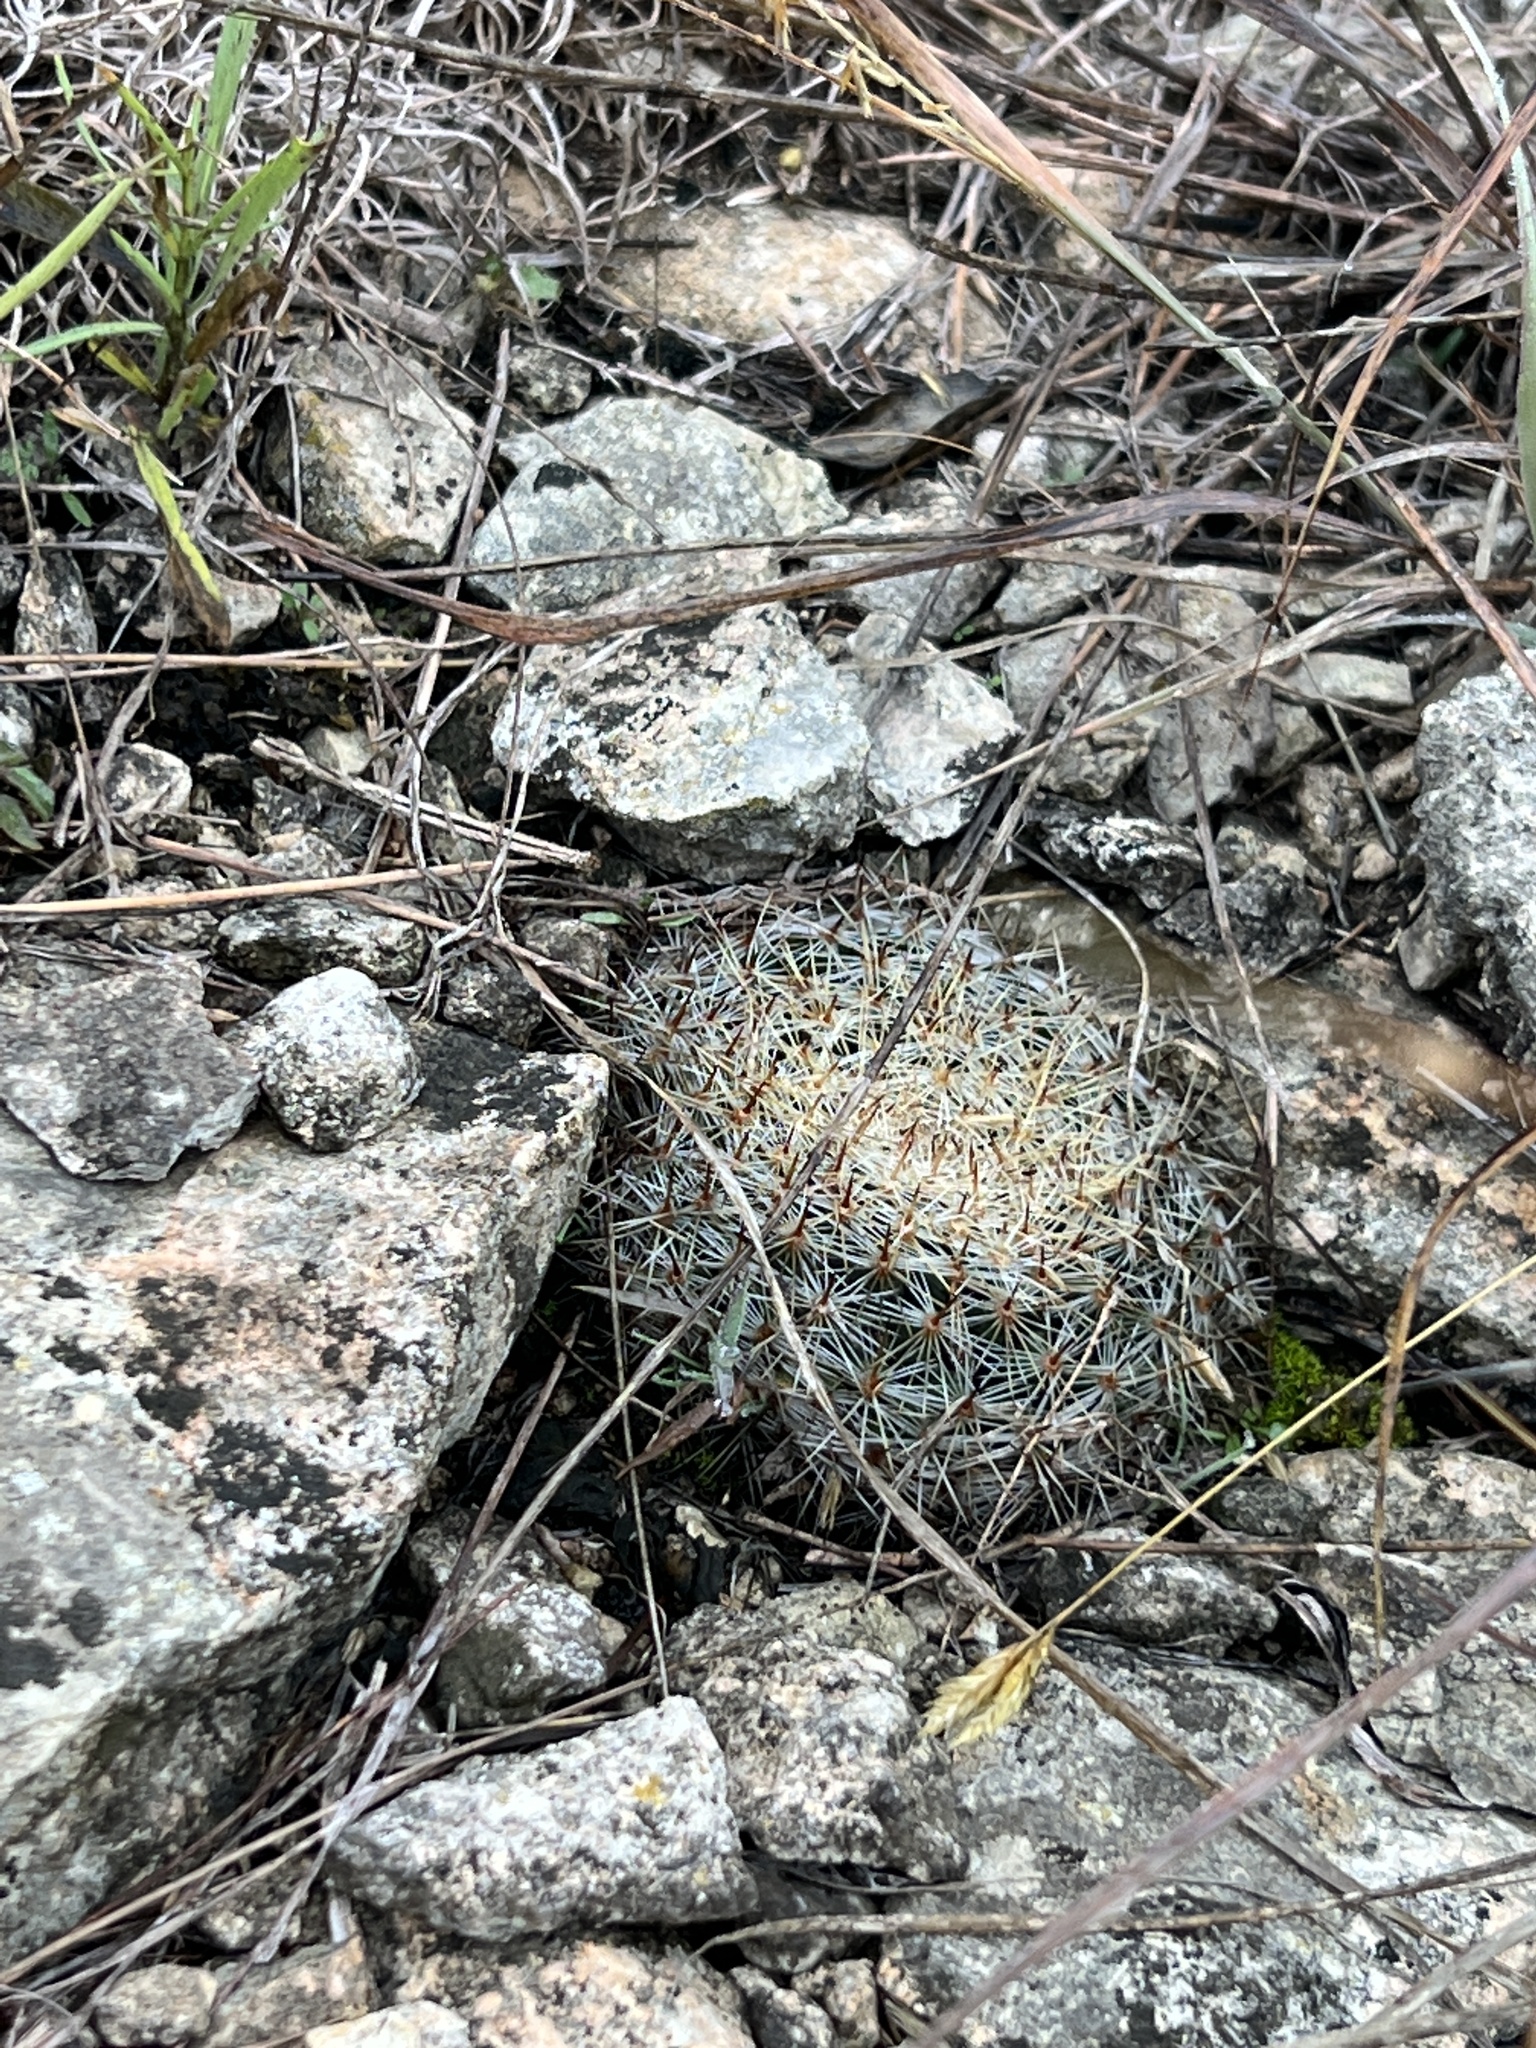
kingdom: Plantae
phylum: Tracheophyta
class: Magnoliopsida
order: Caryophyllales
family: Cactaceae
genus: Mammillaria
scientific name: Mammillaria heyderi
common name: Little nipple cactus
